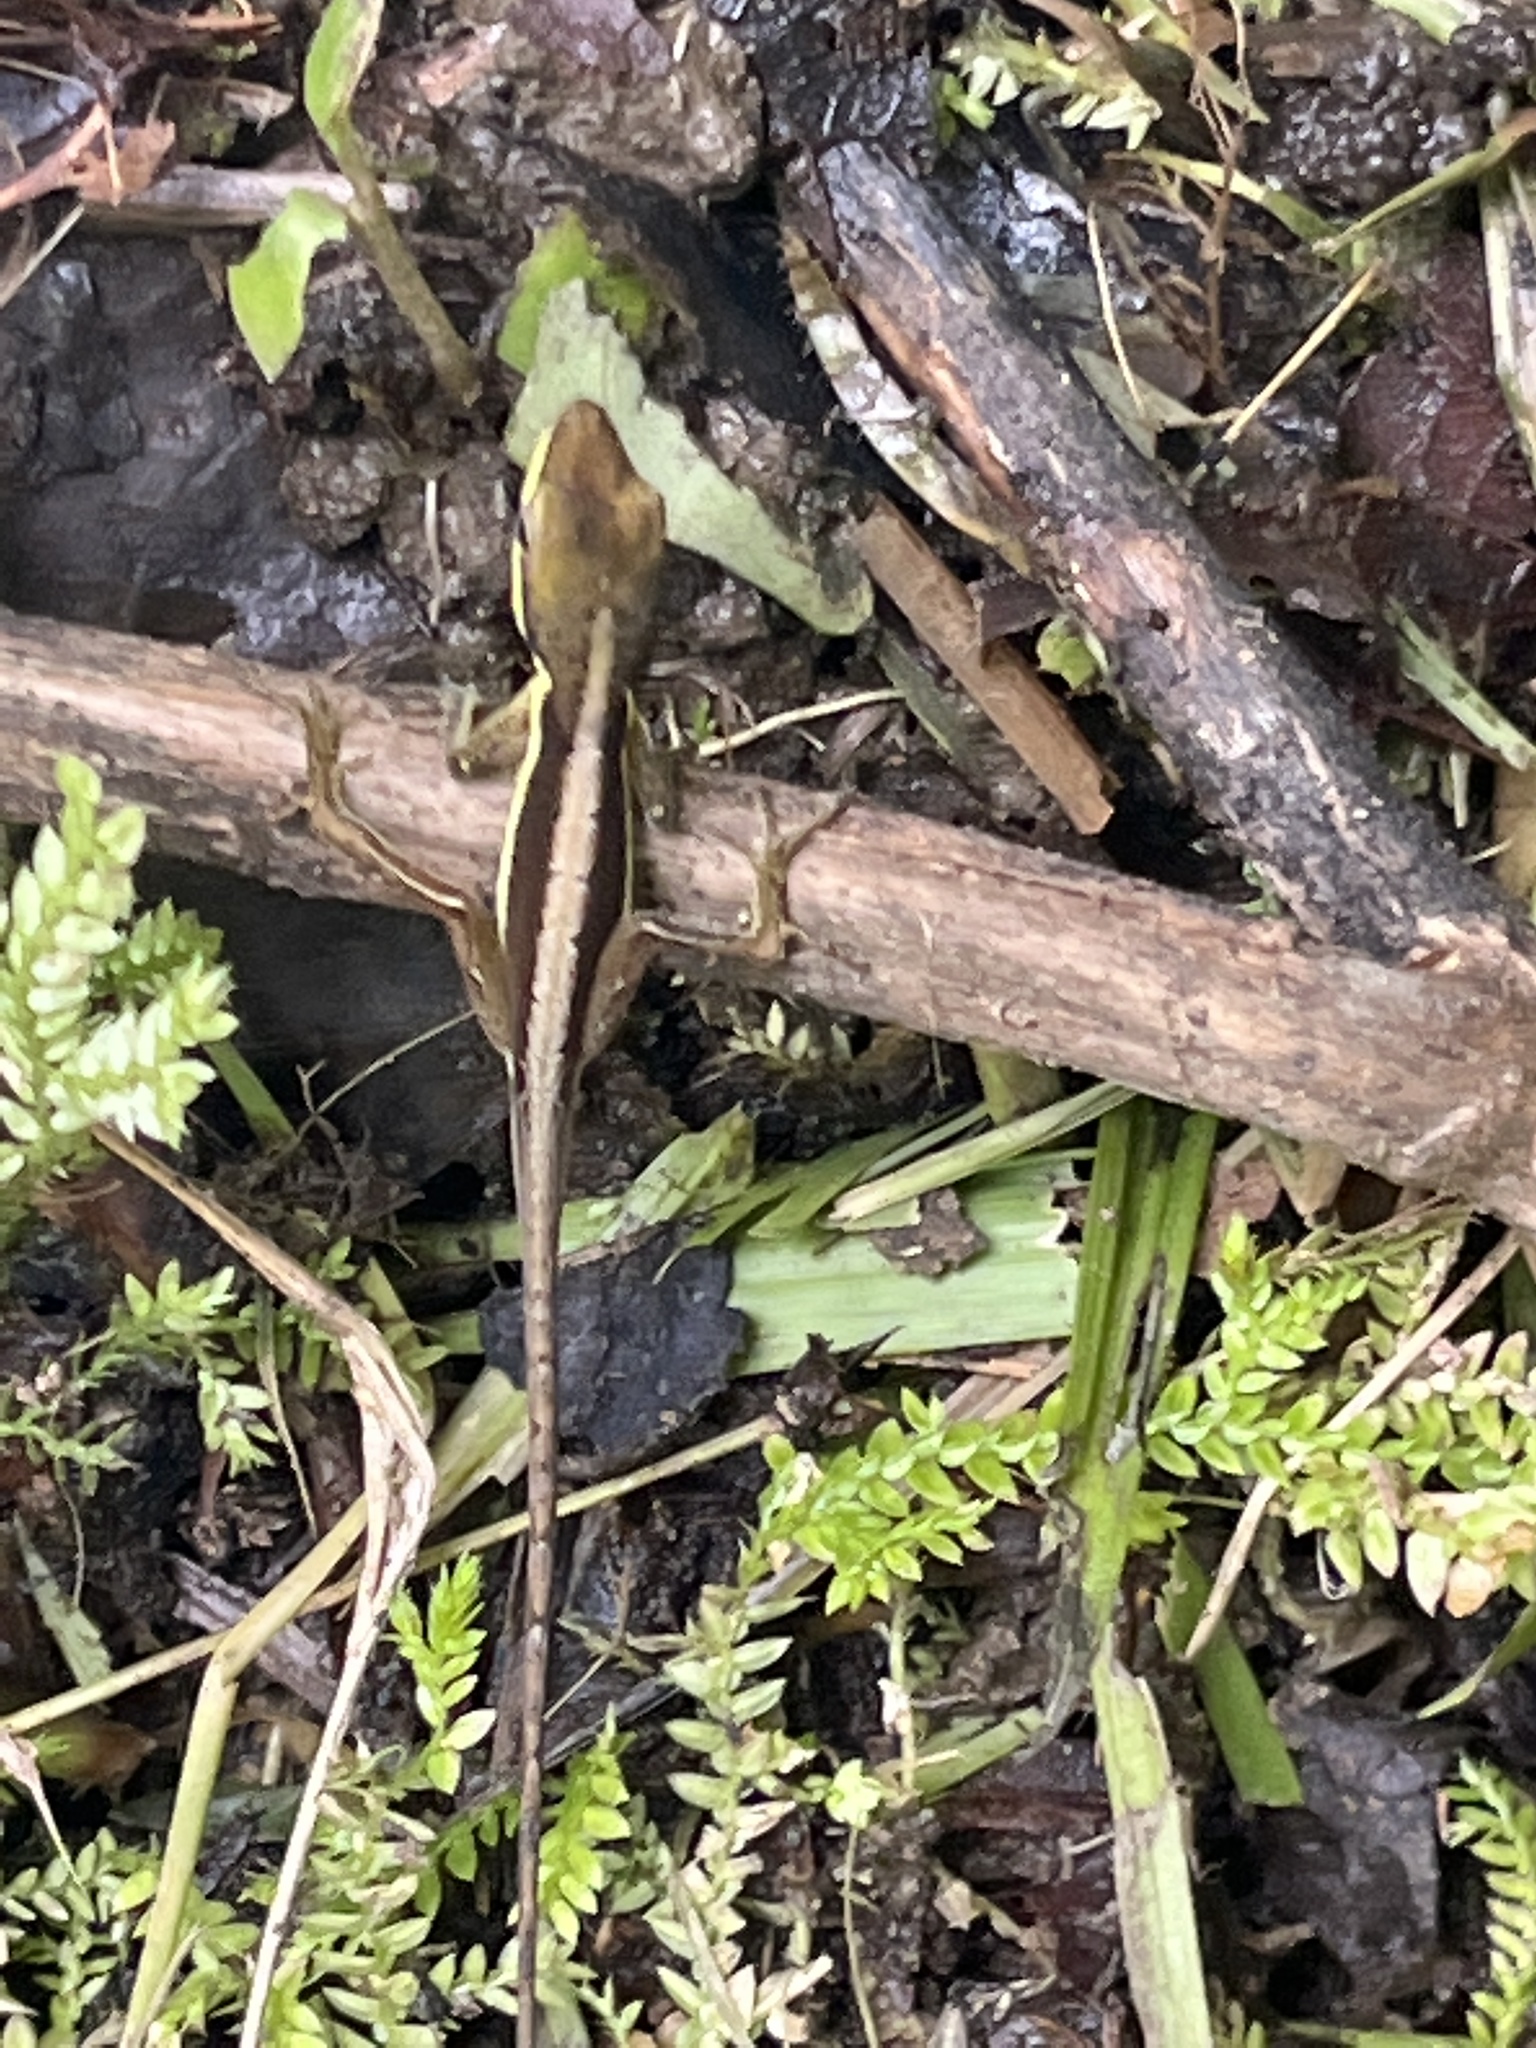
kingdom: Animalia
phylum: Chordata
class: Squamata
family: Dactyloidae
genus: Anolis
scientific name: Anolis krugi
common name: Krug's anole
